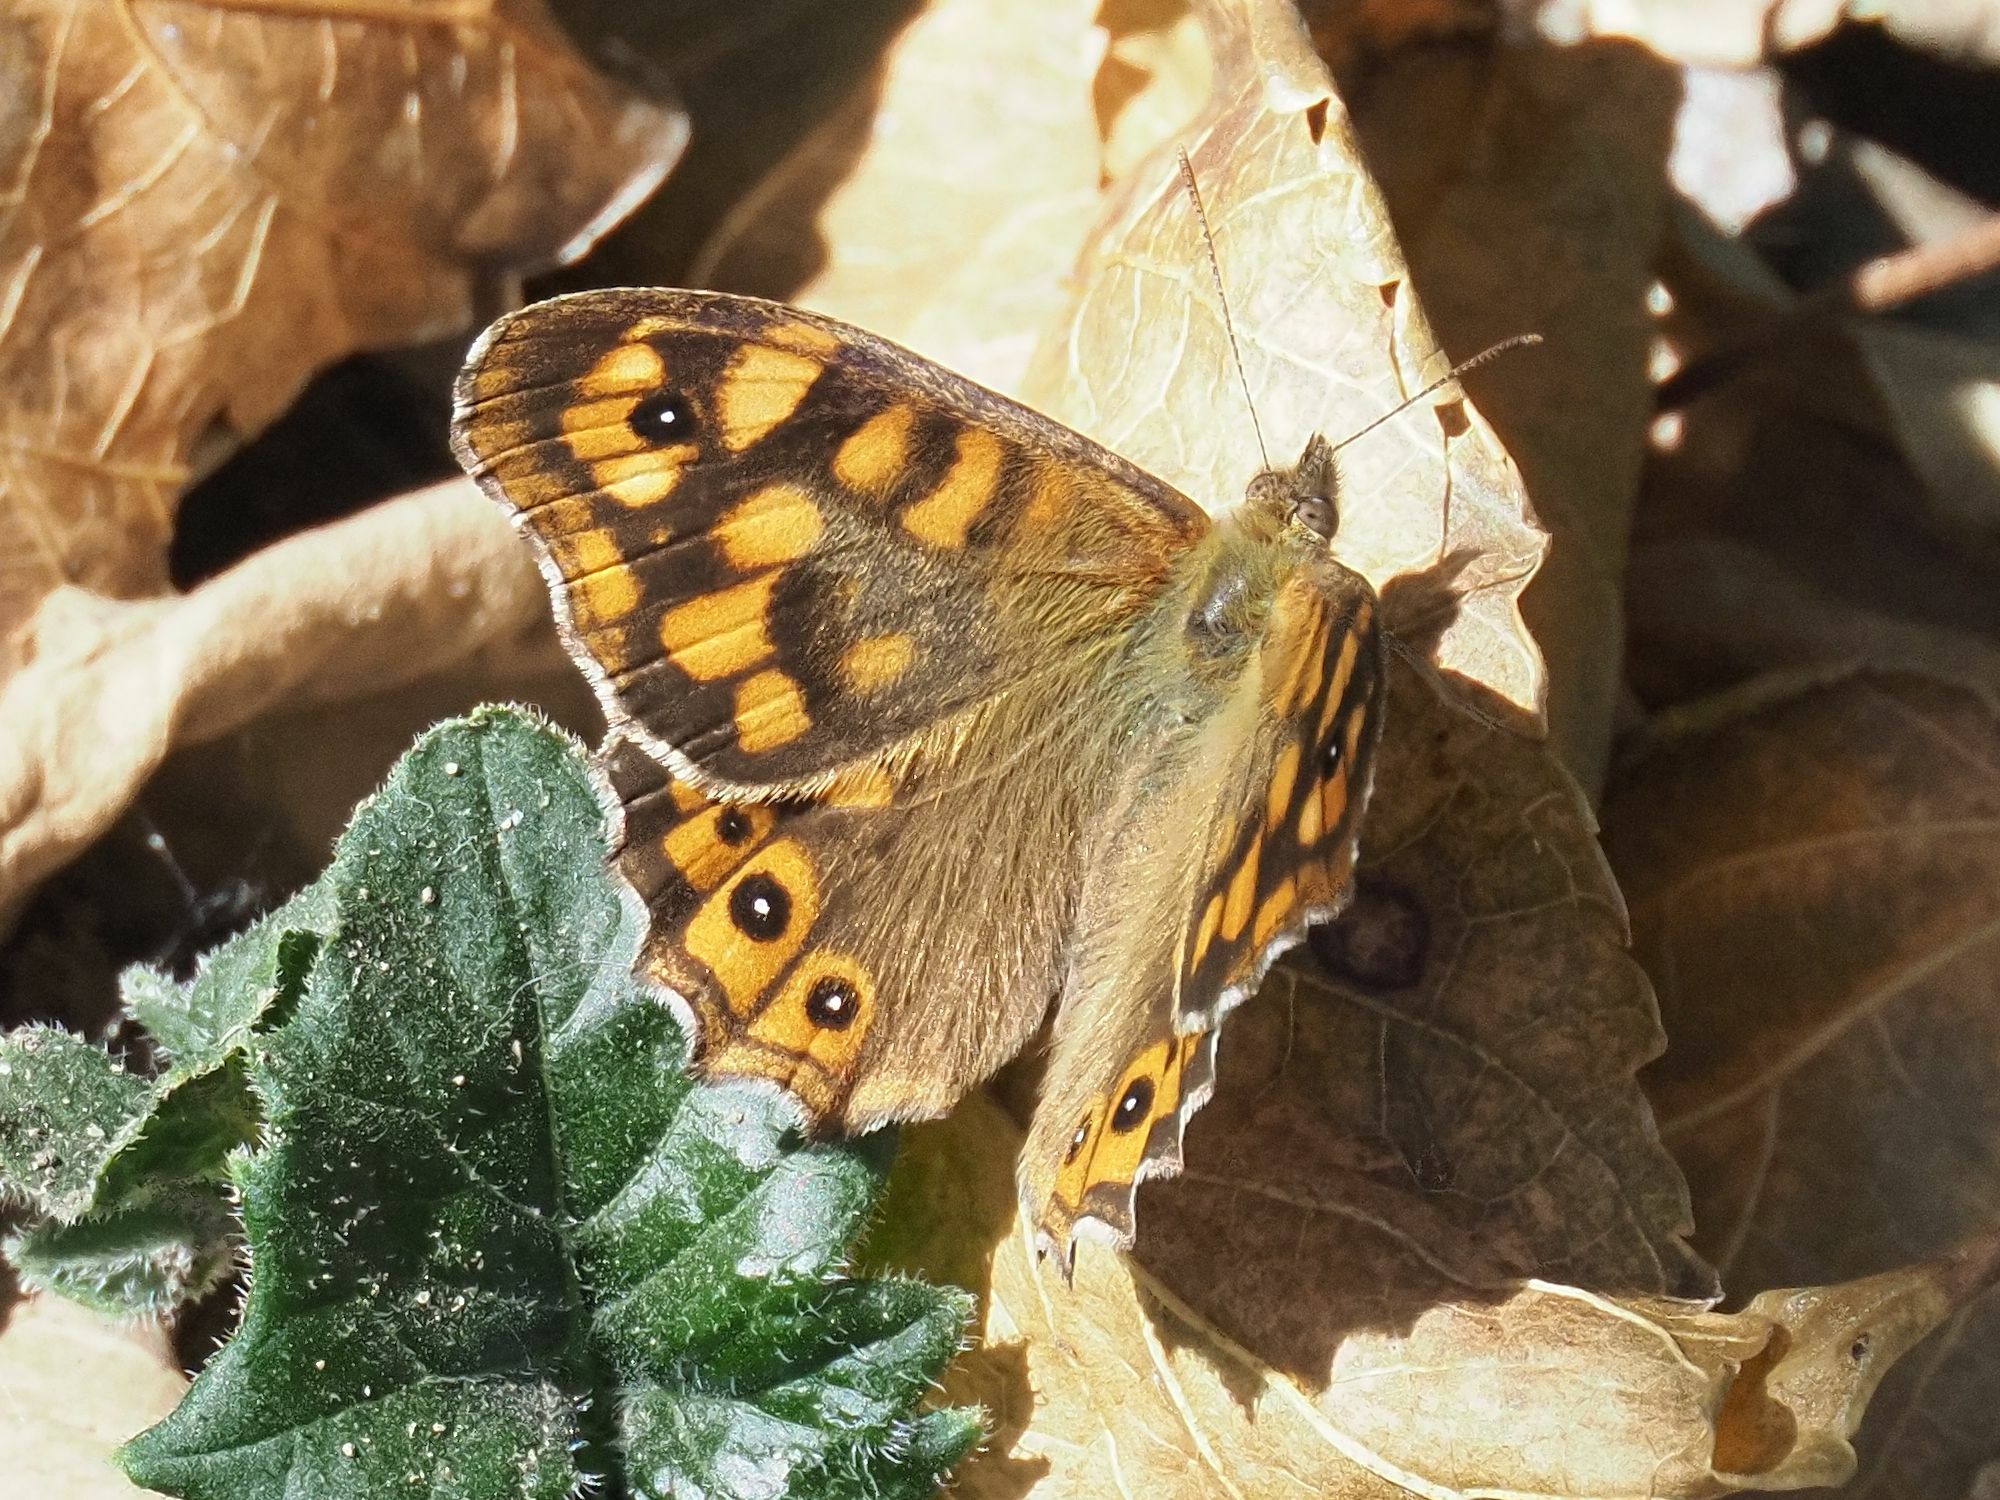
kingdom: Animalia
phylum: Arthropoda
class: Insecta
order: Lepidoptera
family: Nymphalidae
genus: Pararge
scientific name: Pararge aegeria
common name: Speckled wood
